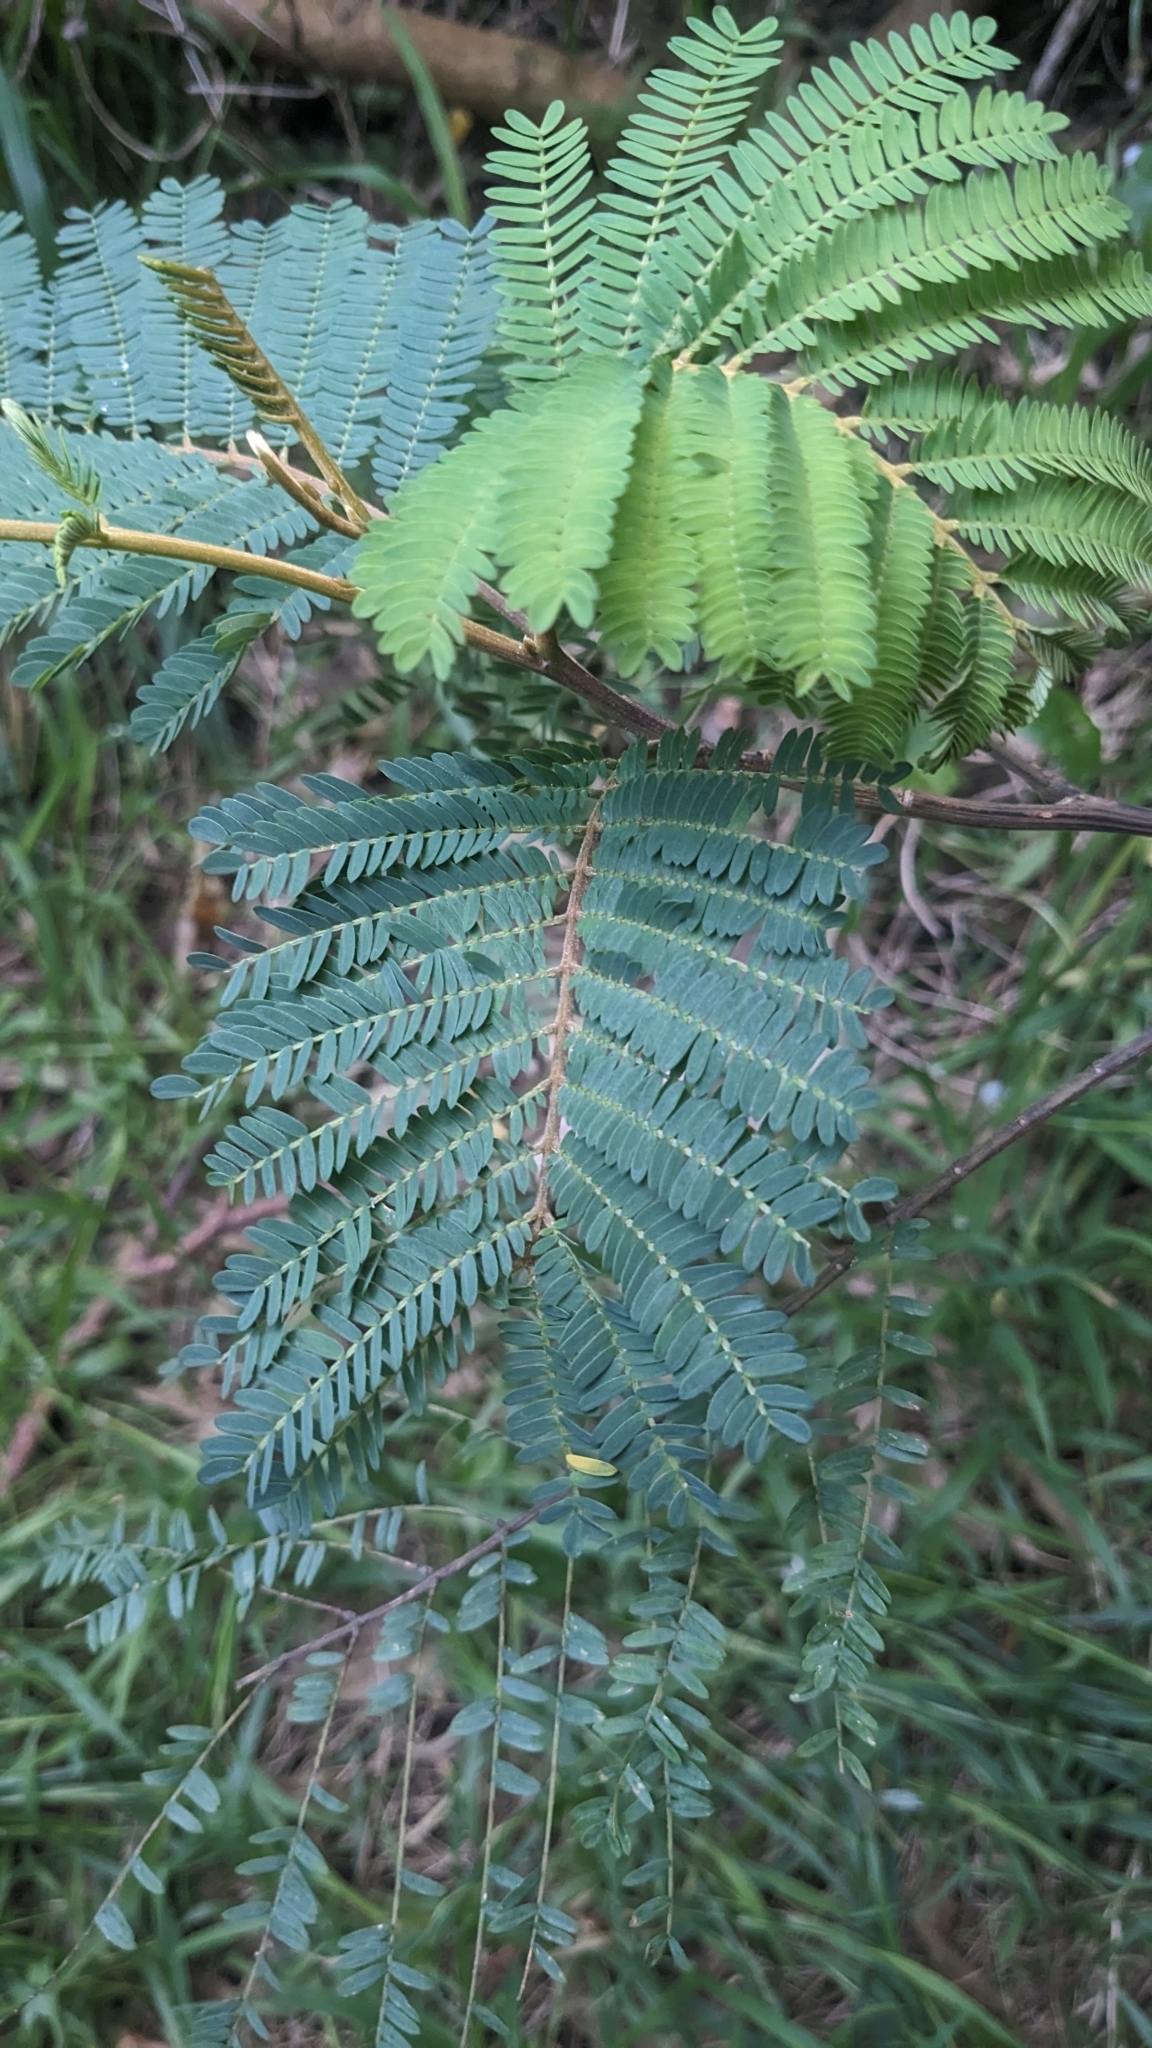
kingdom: Plantae
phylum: Tracheophyta
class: Magnoliopsida
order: Fabales
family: Fabaceae
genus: Paraserianthes
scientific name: Paraserianthes lophantha
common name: Plume albizia
